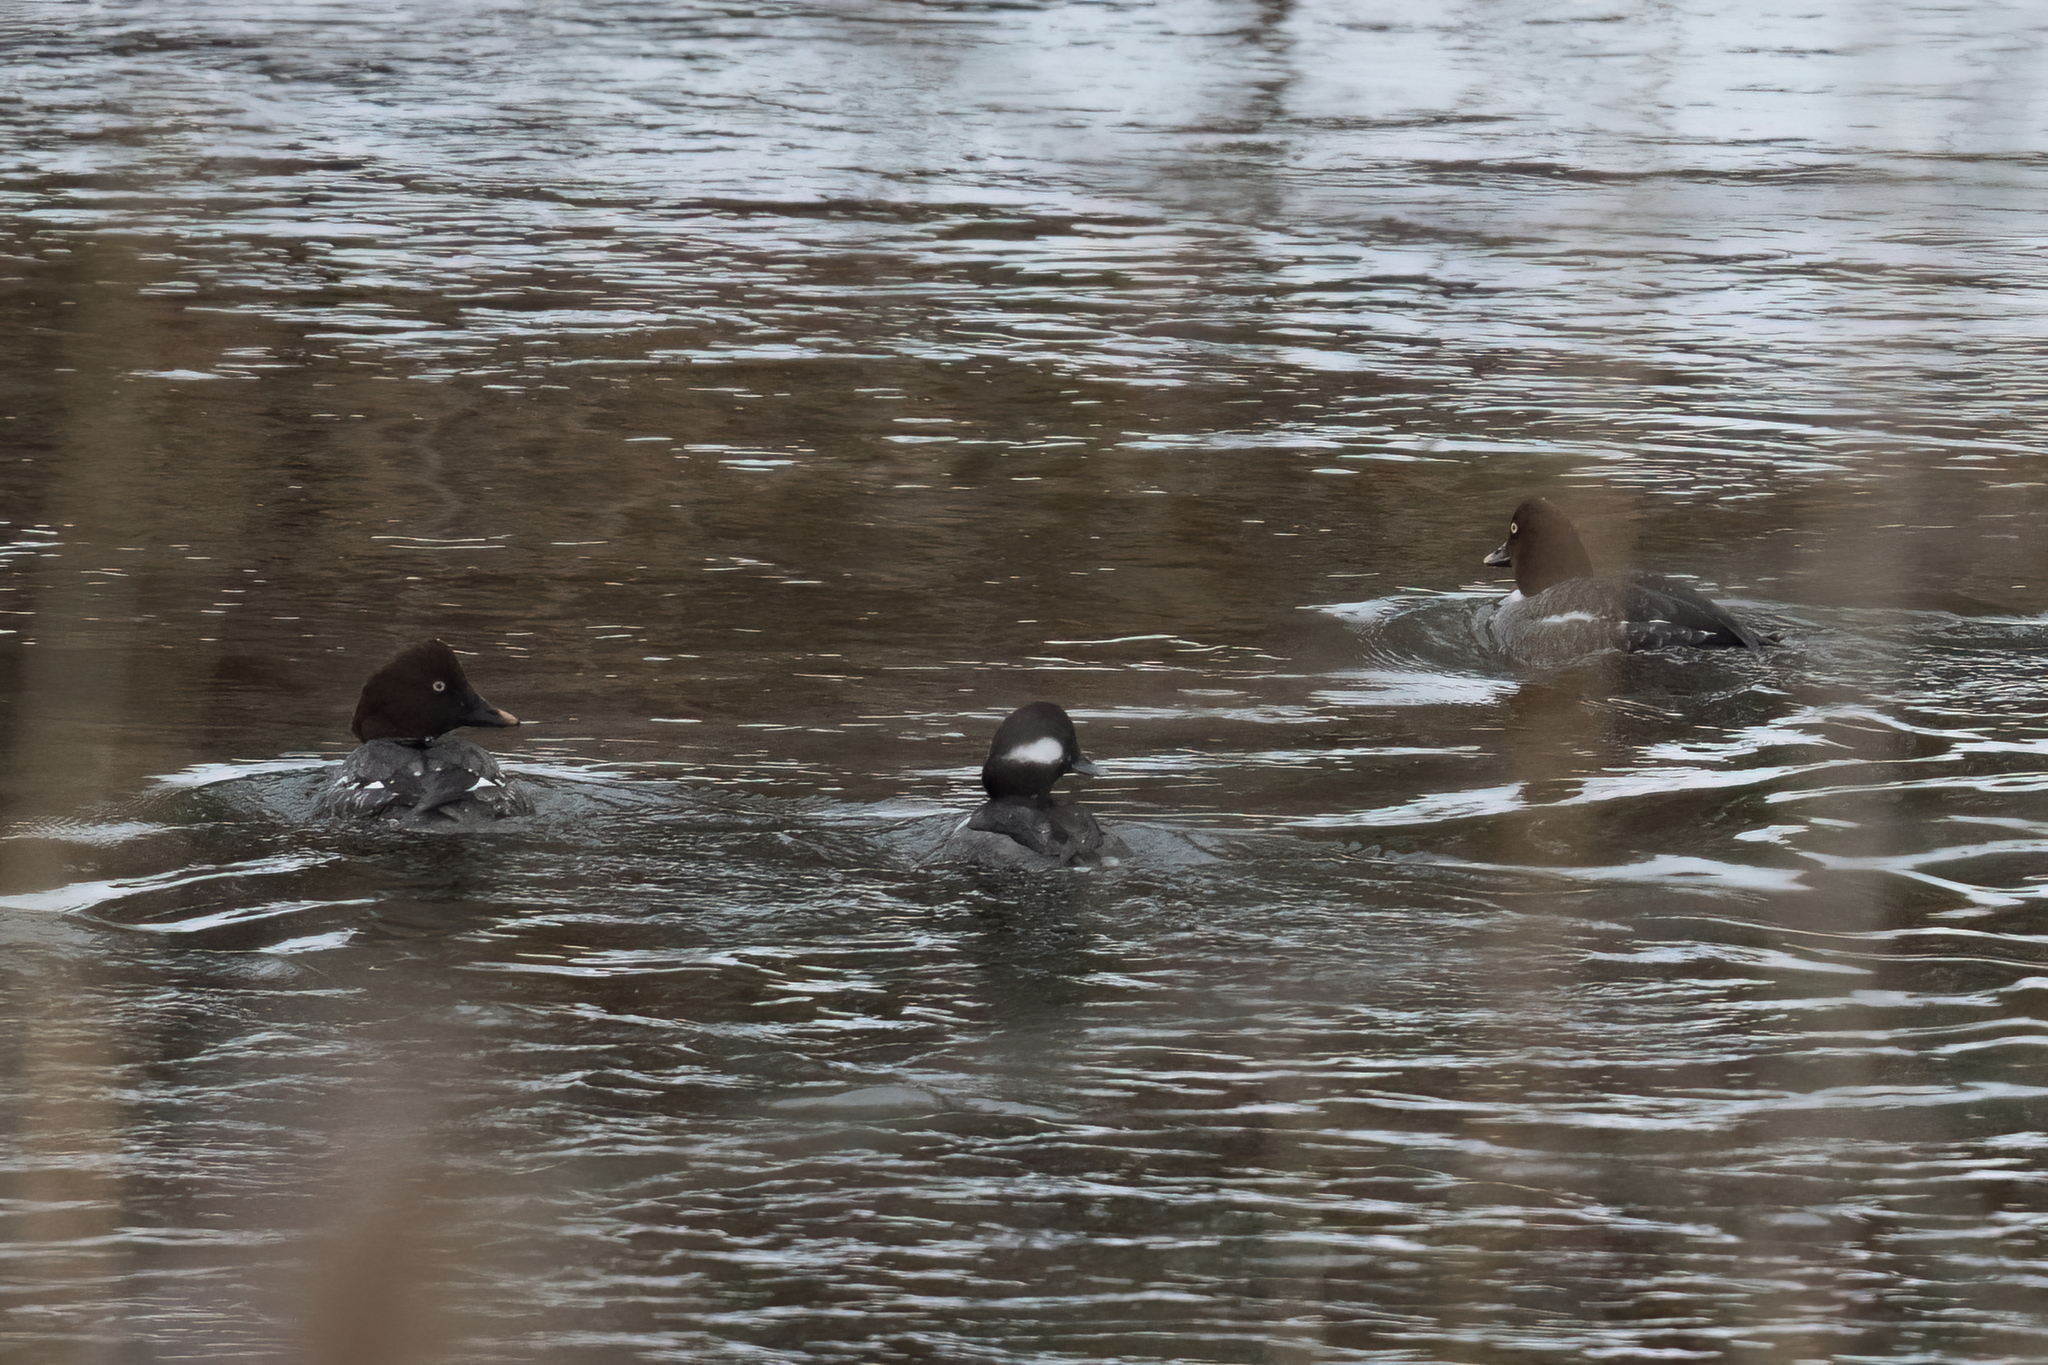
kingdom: Animalia
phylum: Chordata
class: Aves
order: Anseriformes
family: Anatidae
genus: Bucephala
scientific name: Bucephala clangula
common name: Common goldeneye
